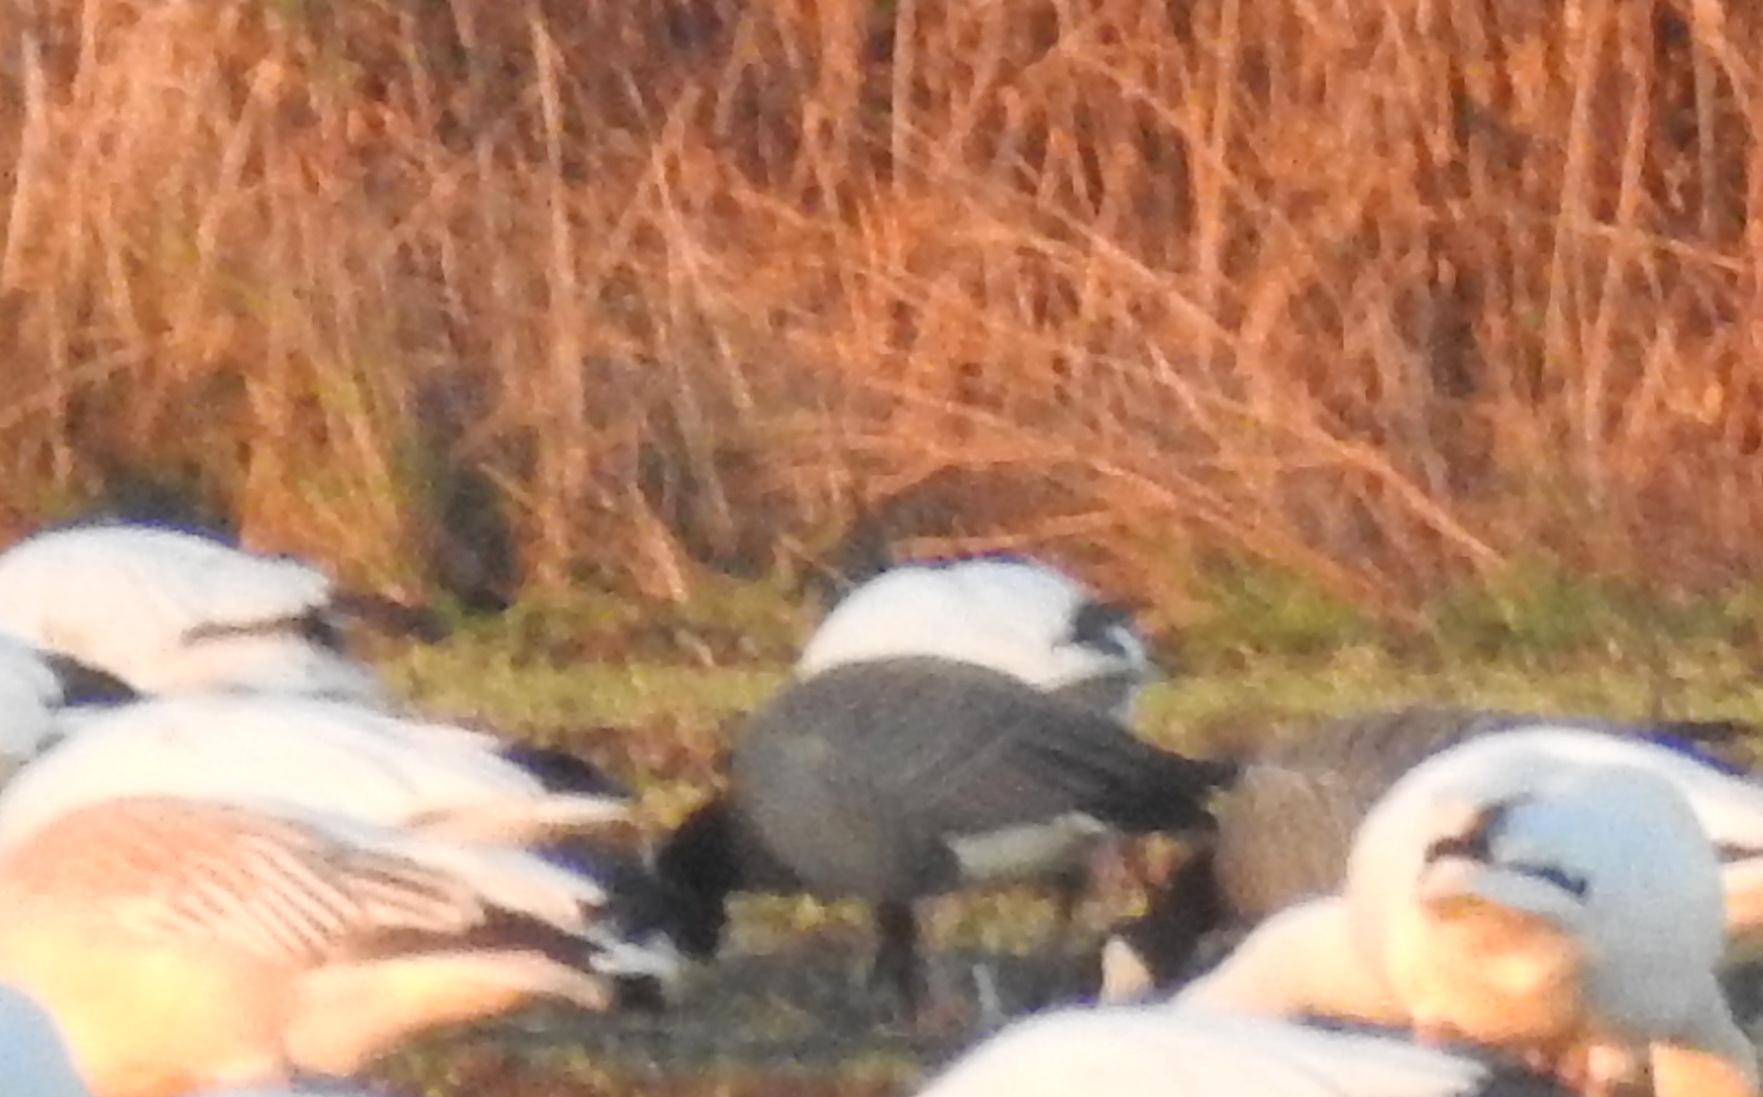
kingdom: Animalia
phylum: Chordata
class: Aves
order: Anseriformes
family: Anatidae
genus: Anser
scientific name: Anser caerulescens
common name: Snow goose
